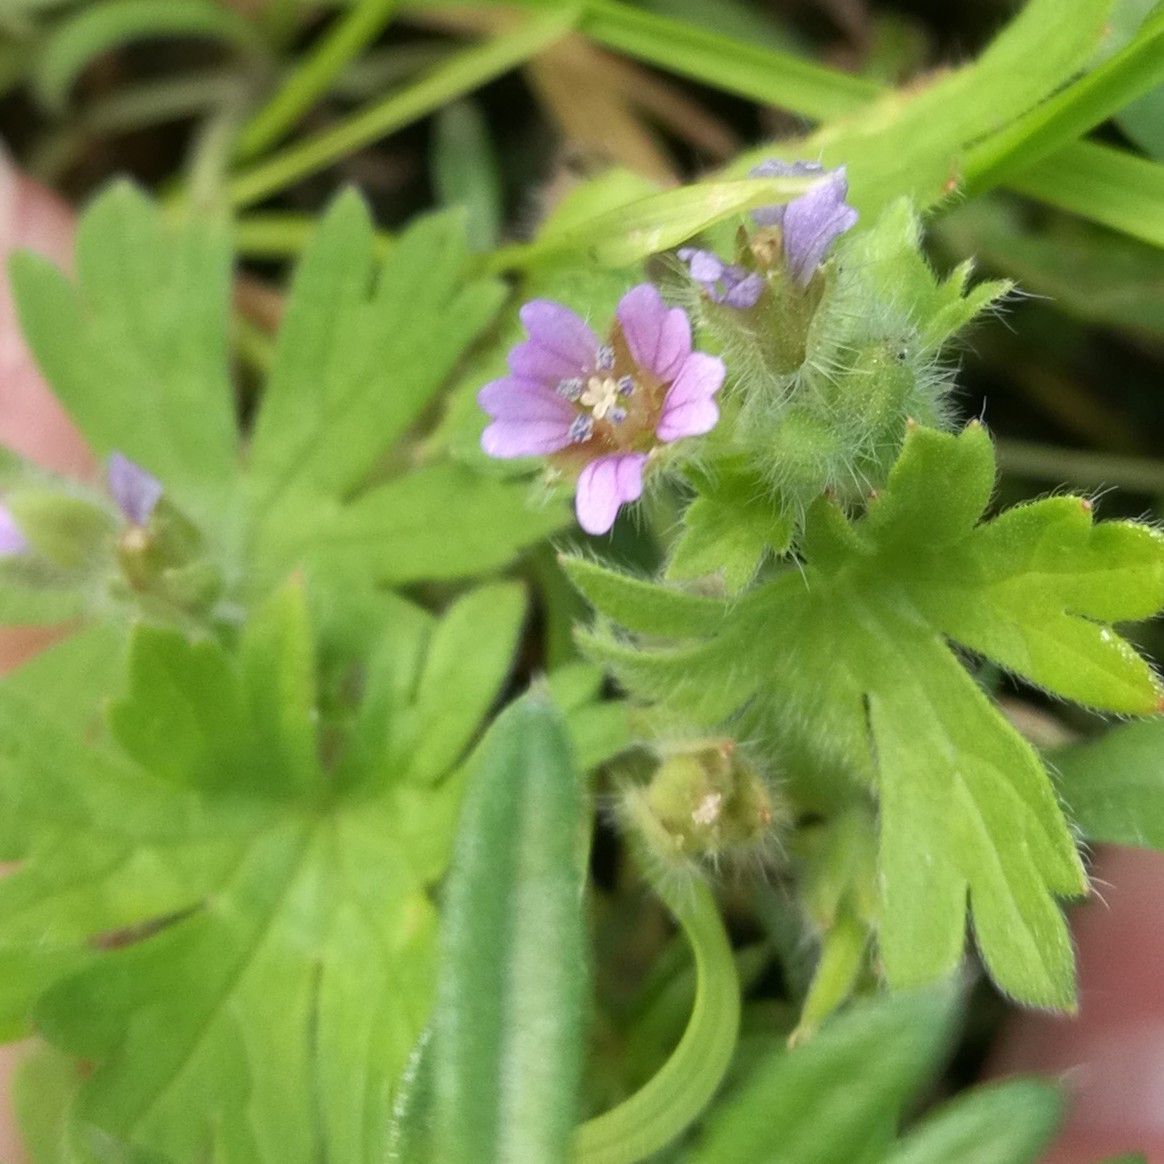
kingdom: Plantae
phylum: Tracheophyta
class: Magnoliopsida
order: Geraniales
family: Geraniaceae
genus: Geranium
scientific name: Geranium pusillum
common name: Small geranium
